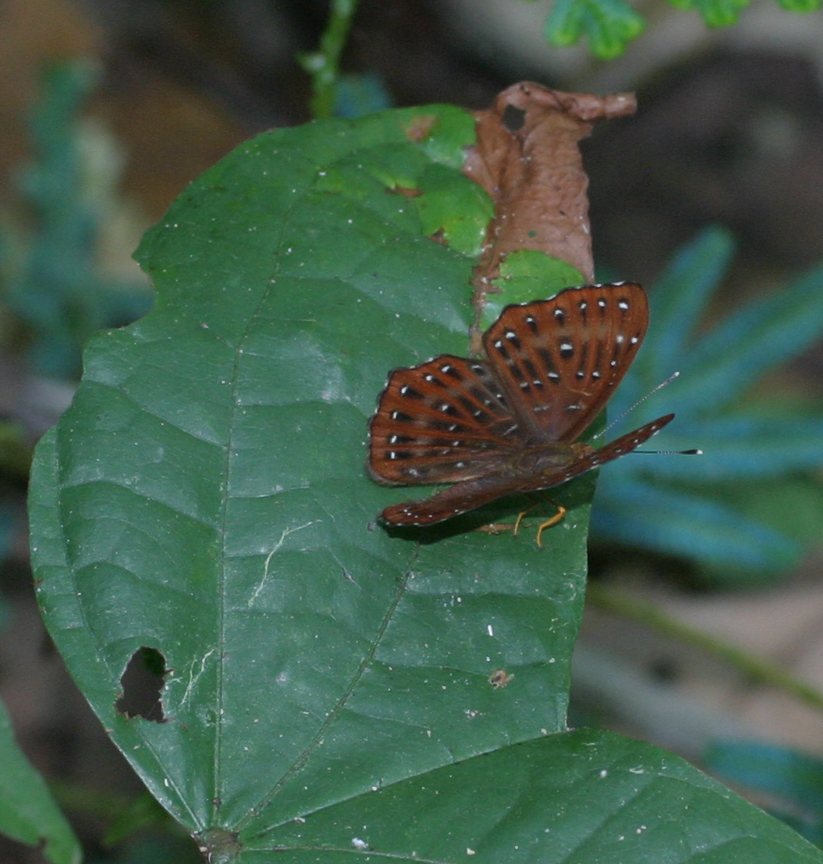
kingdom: Animalia
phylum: Arthropoda
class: Insecta
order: Lepidoptera
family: Riodinidae
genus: Zemeros
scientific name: Zemeros flegyas
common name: Punchinello
